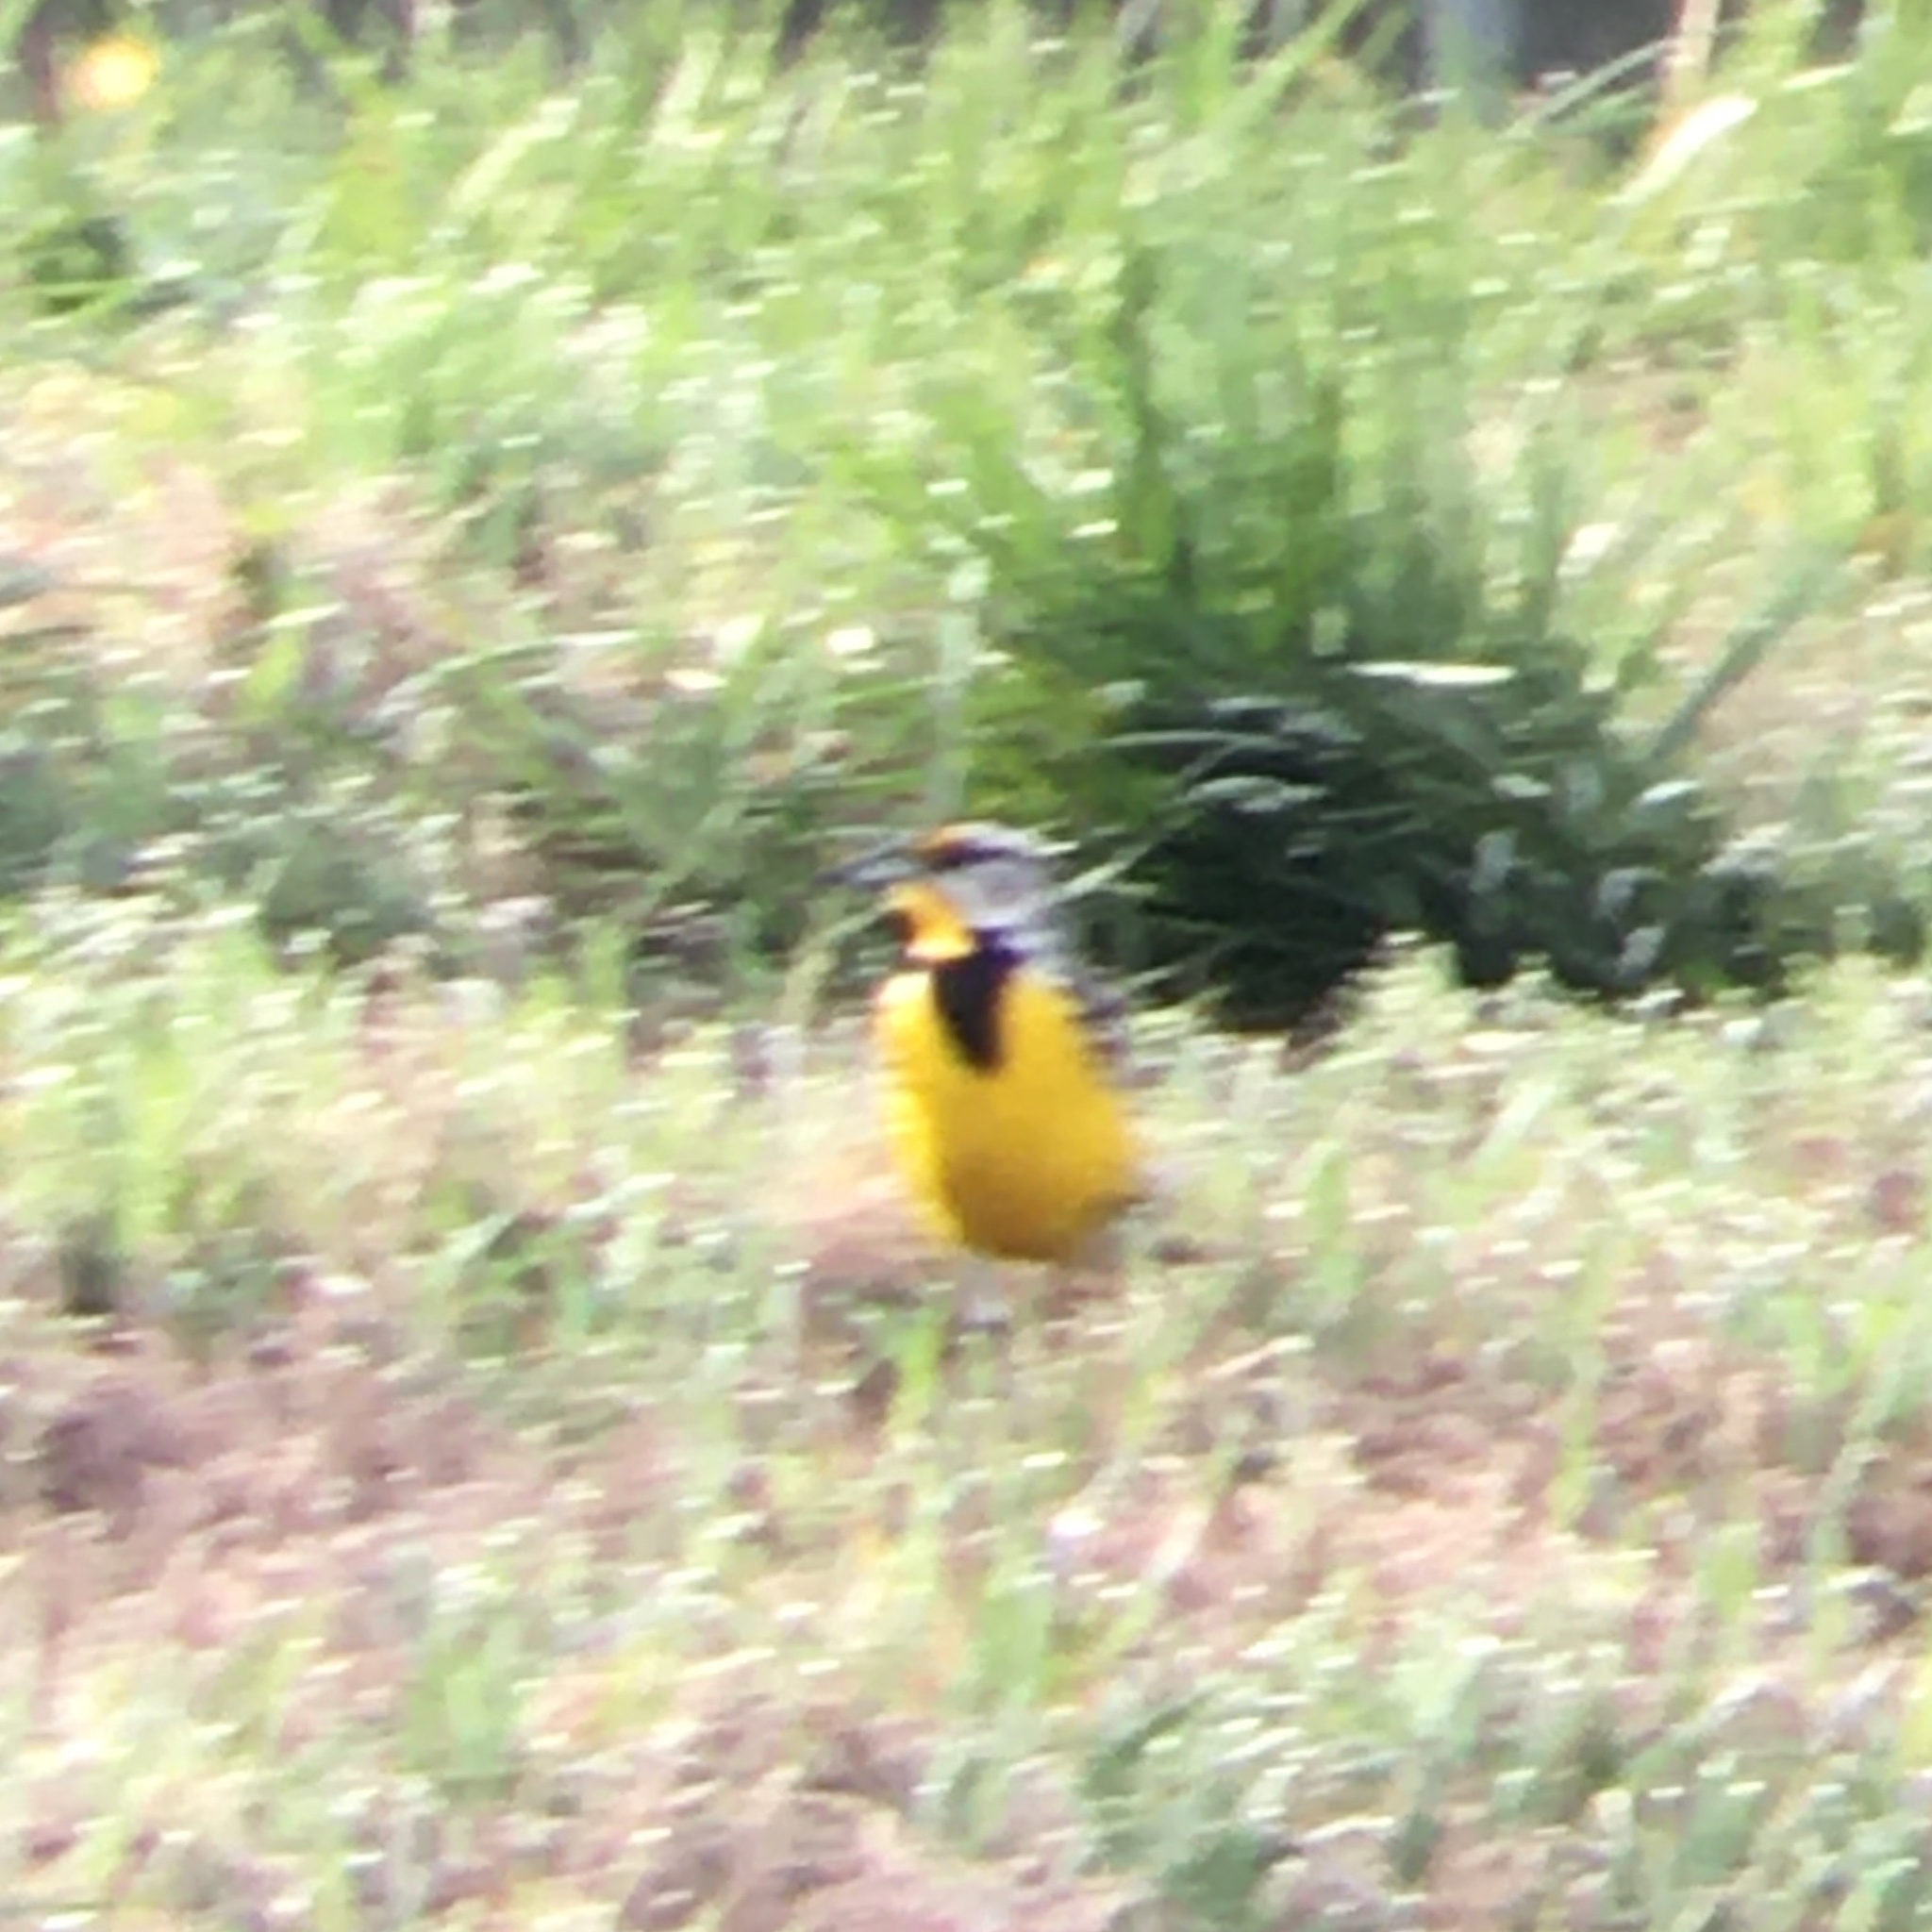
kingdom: Animalia
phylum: Chordata
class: Aves
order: Passeriformes
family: Icteridae
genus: Sturnella
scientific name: Sturnella magna
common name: Eastern meadowlark
